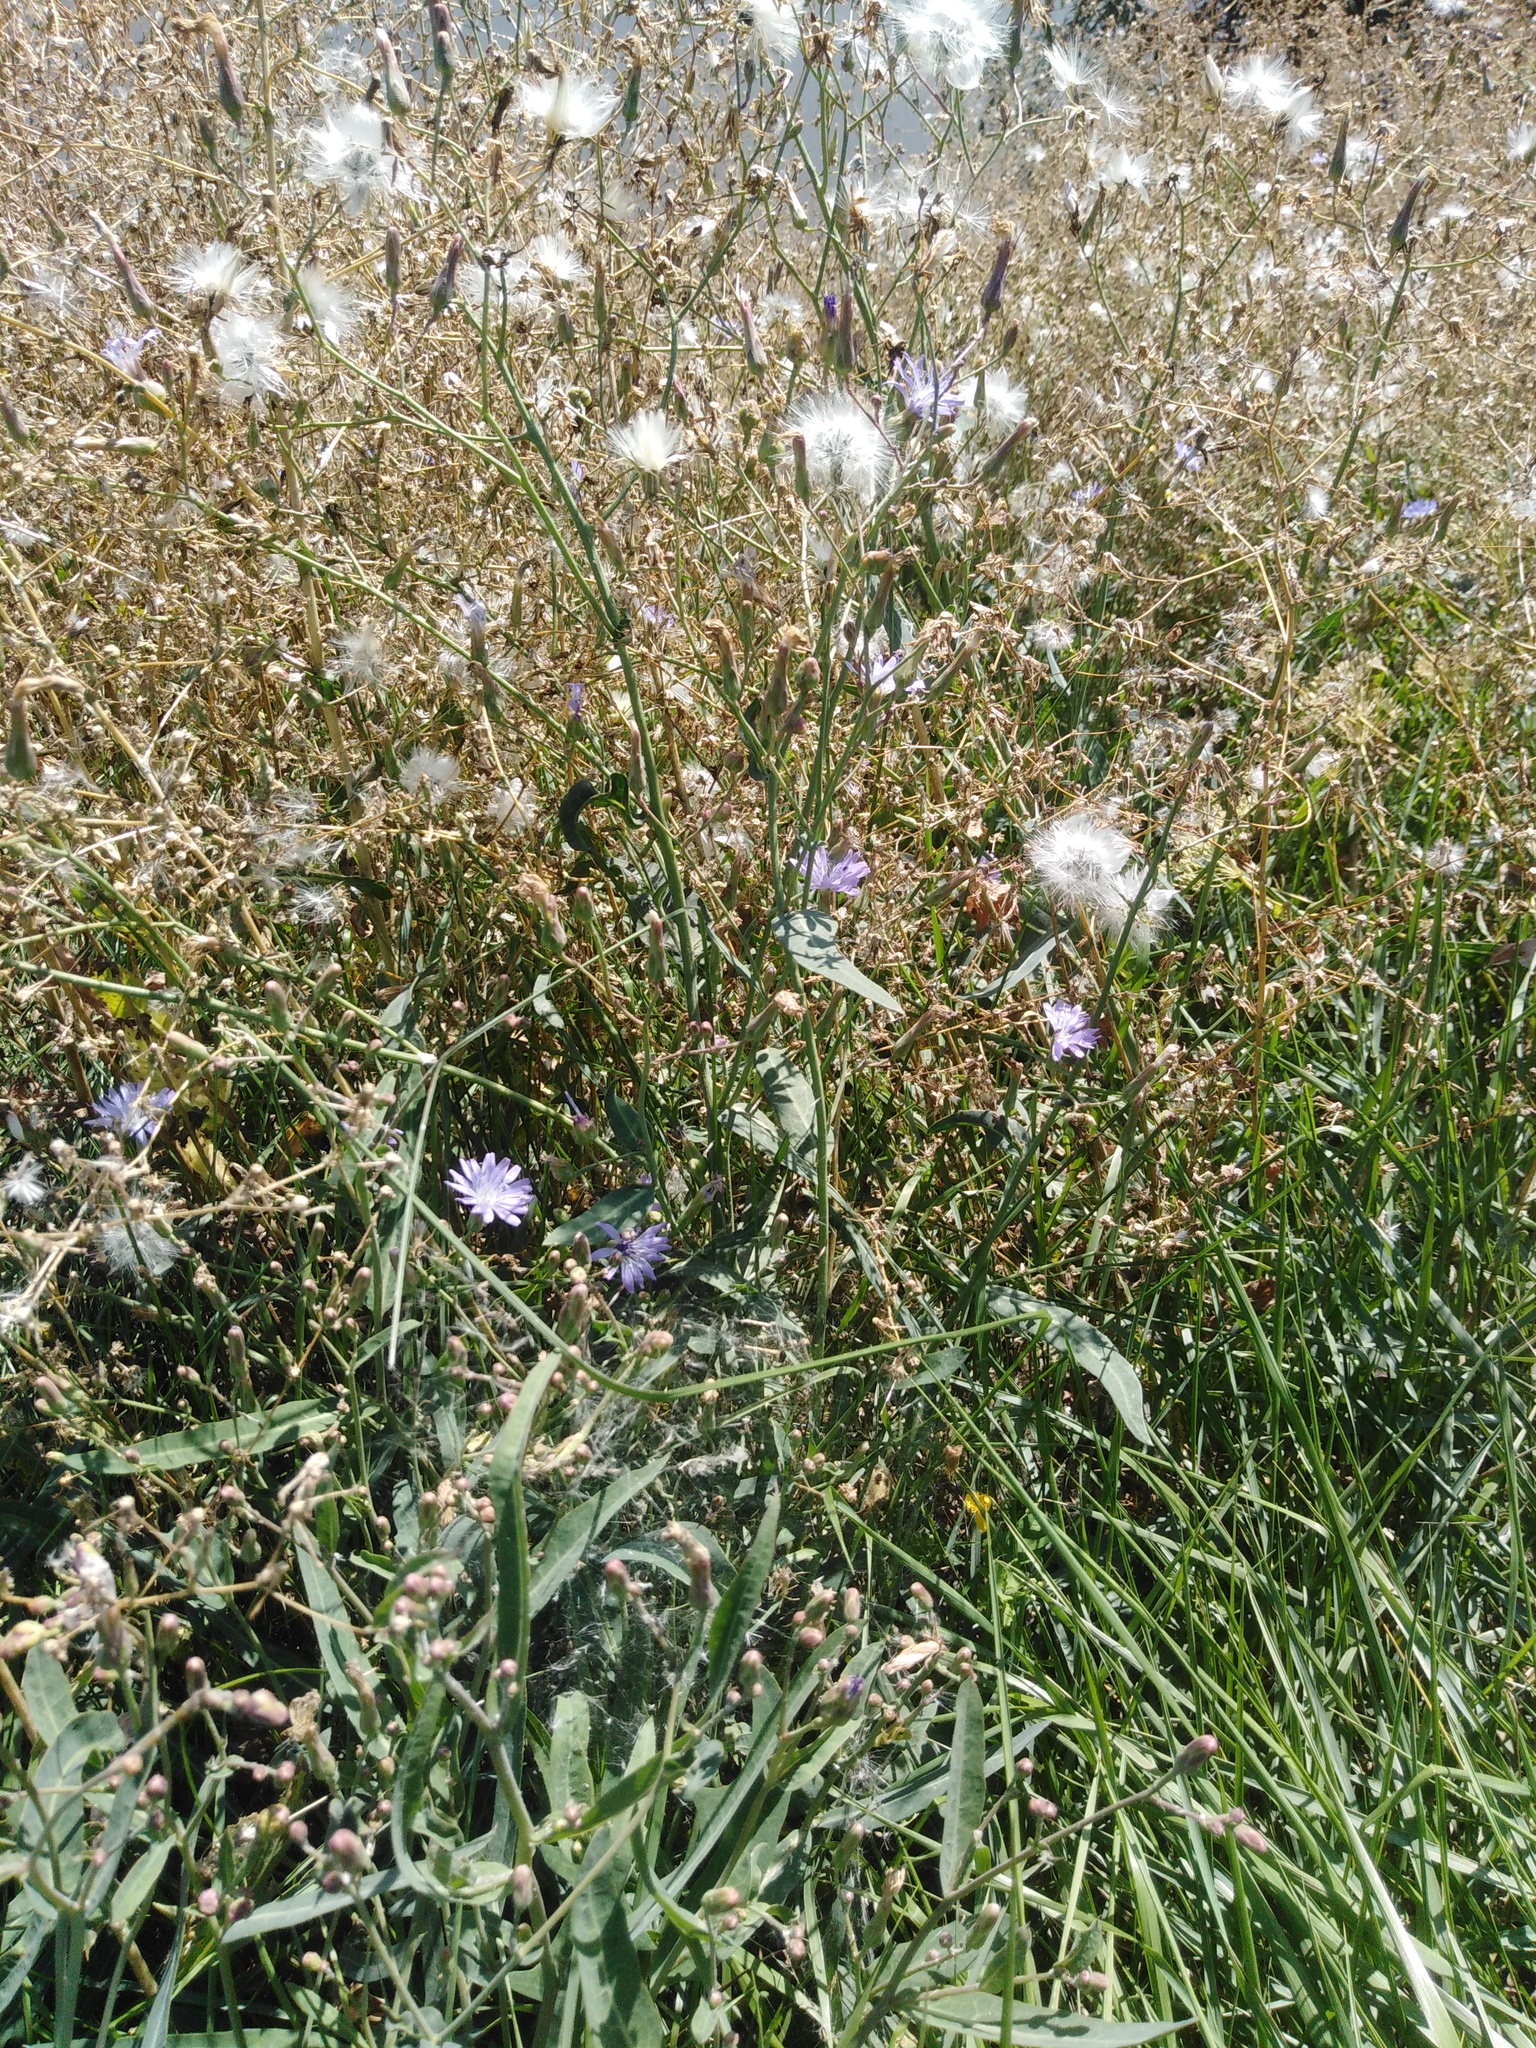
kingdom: Plantae
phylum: Tracheophyta
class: Magnoliopsida
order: Asterales
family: Asteraceae
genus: Lactuca
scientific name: Lactuca tatarica
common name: Blue lettuce
